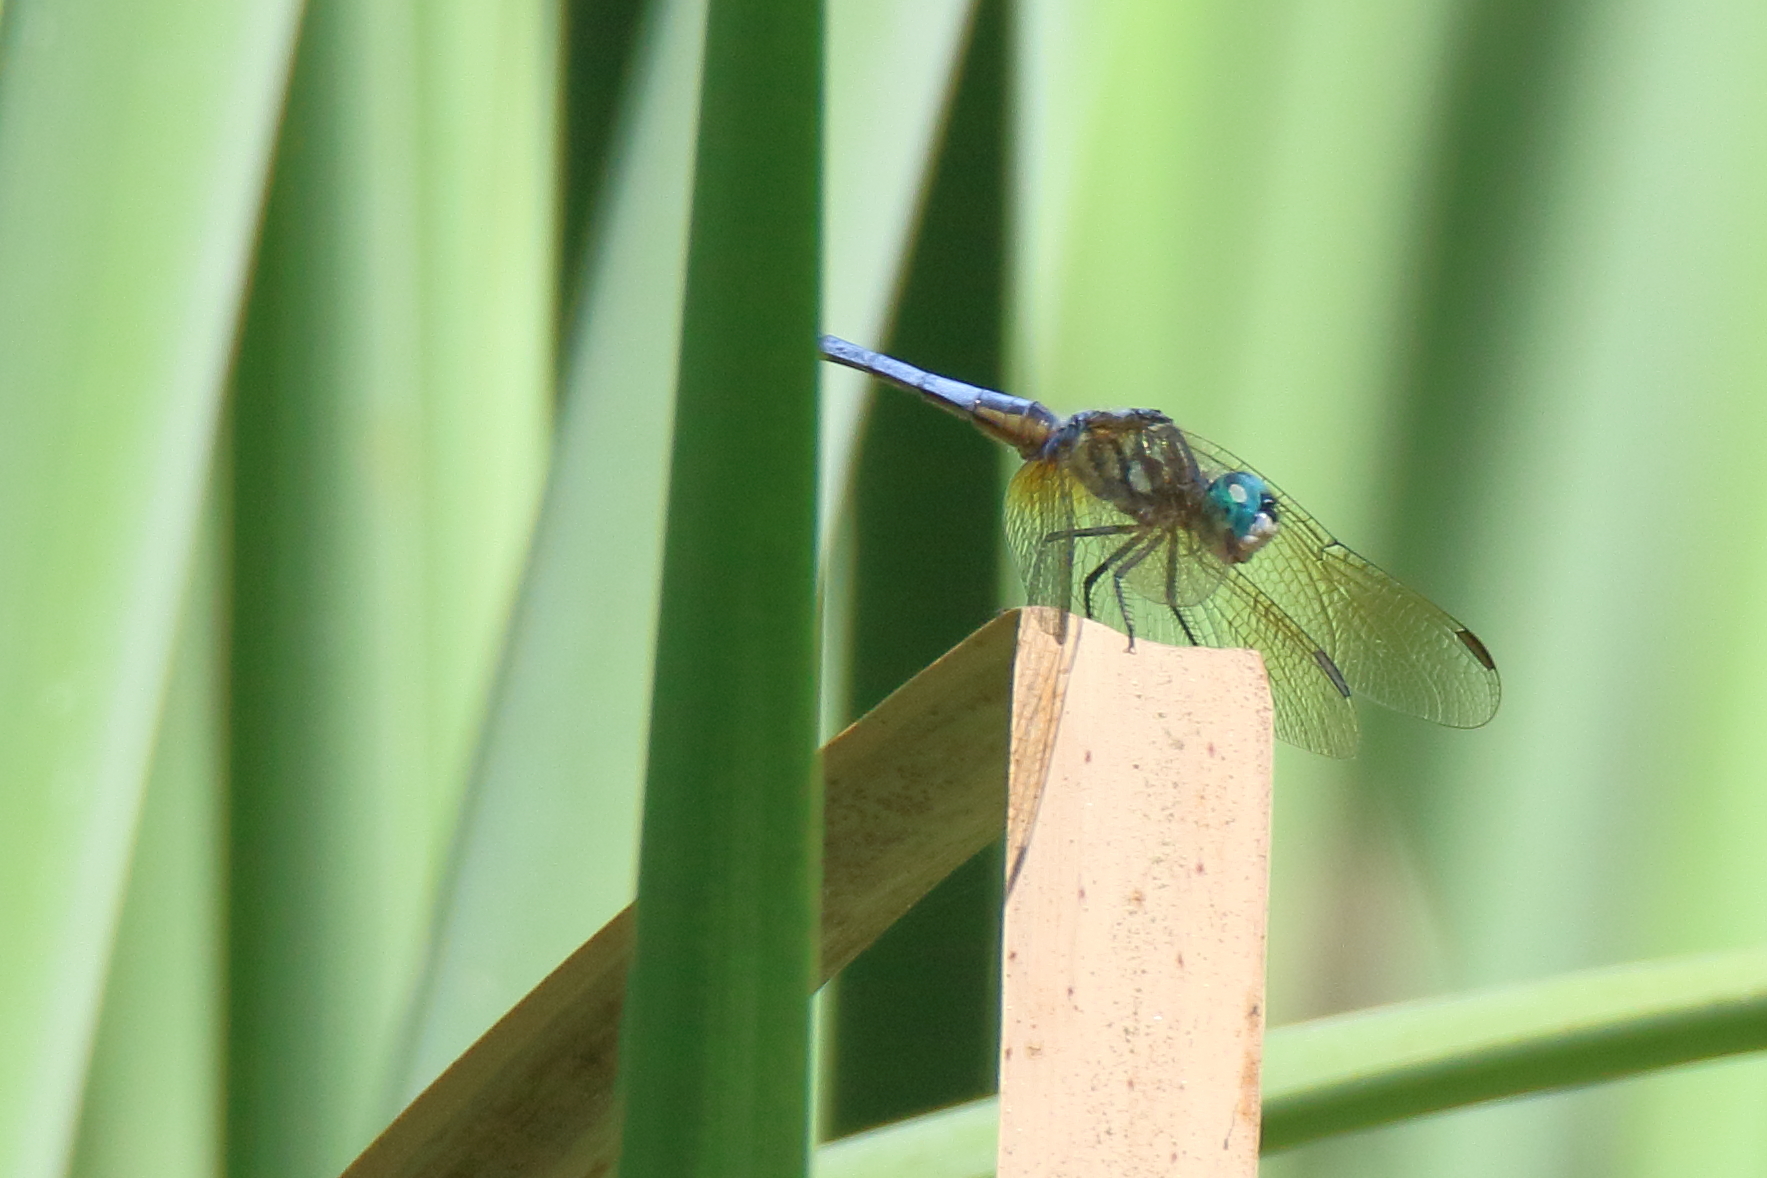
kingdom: Animalia
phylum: Arthropoda
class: Insecta
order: Odonata
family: Libellulidae
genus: Pachydiplax
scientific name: Pachydiplax longipennis
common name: Blue dasher
